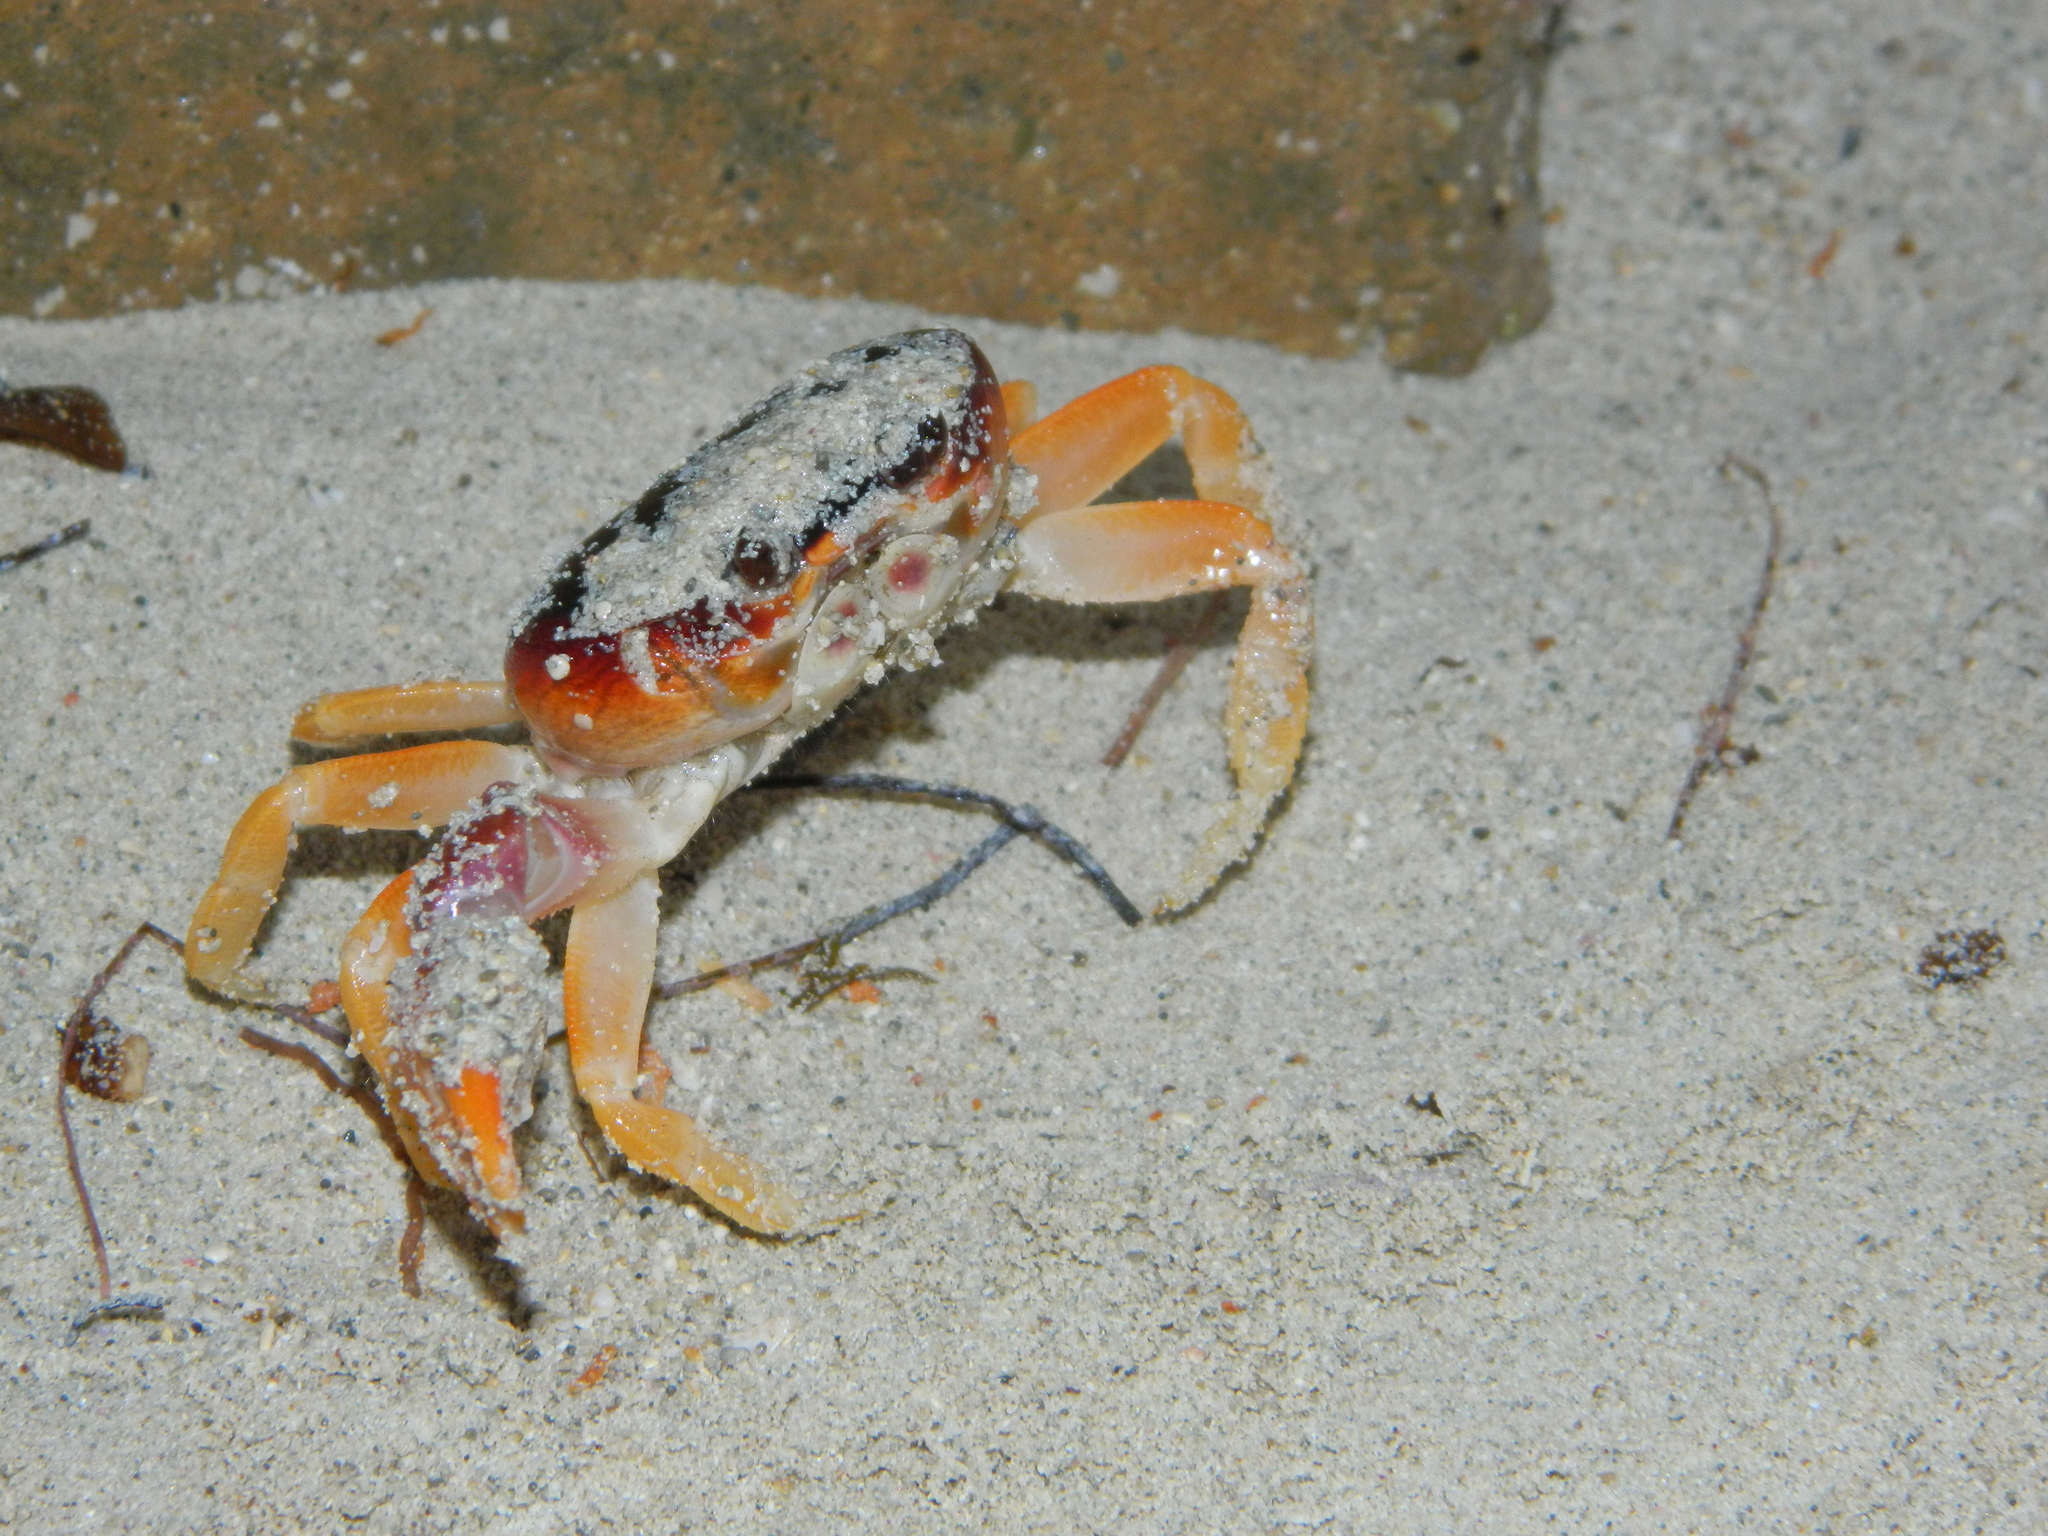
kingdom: Animalia
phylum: Arthropoda
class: Malacostraca
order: Decapoda
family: Gecarcinidae
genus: Gecarcinus
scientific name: Gecarcinus lateralis
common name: Bermuda land crab
